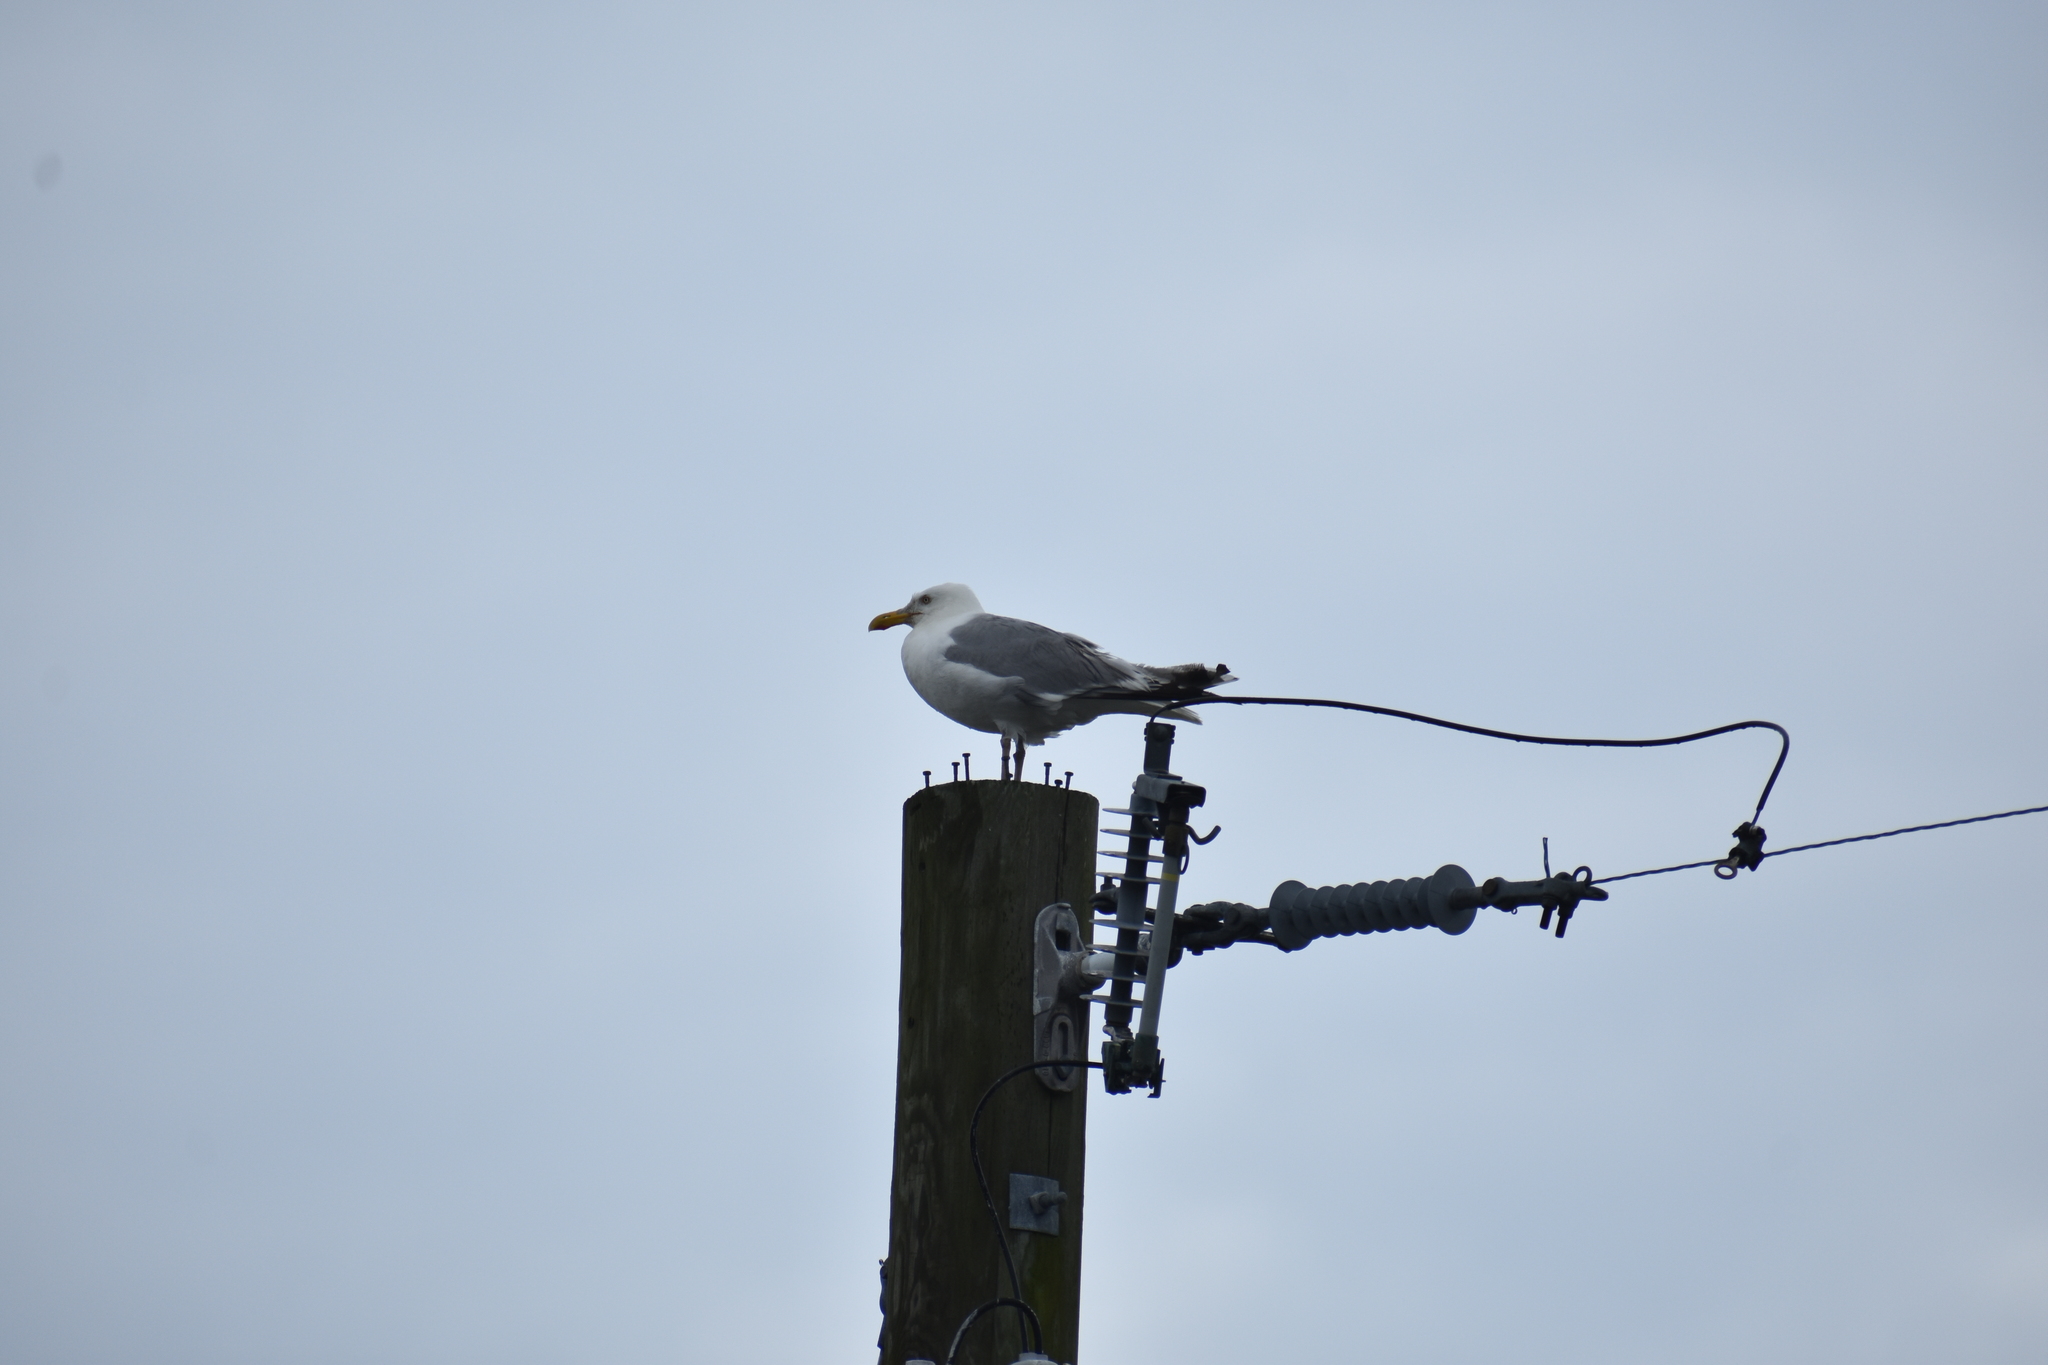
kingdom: Animalia
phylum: Chordata
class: Aves
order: Charadriiformes
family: Laridae
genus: Larus
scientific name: Larus argentatus
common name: Herring gull
